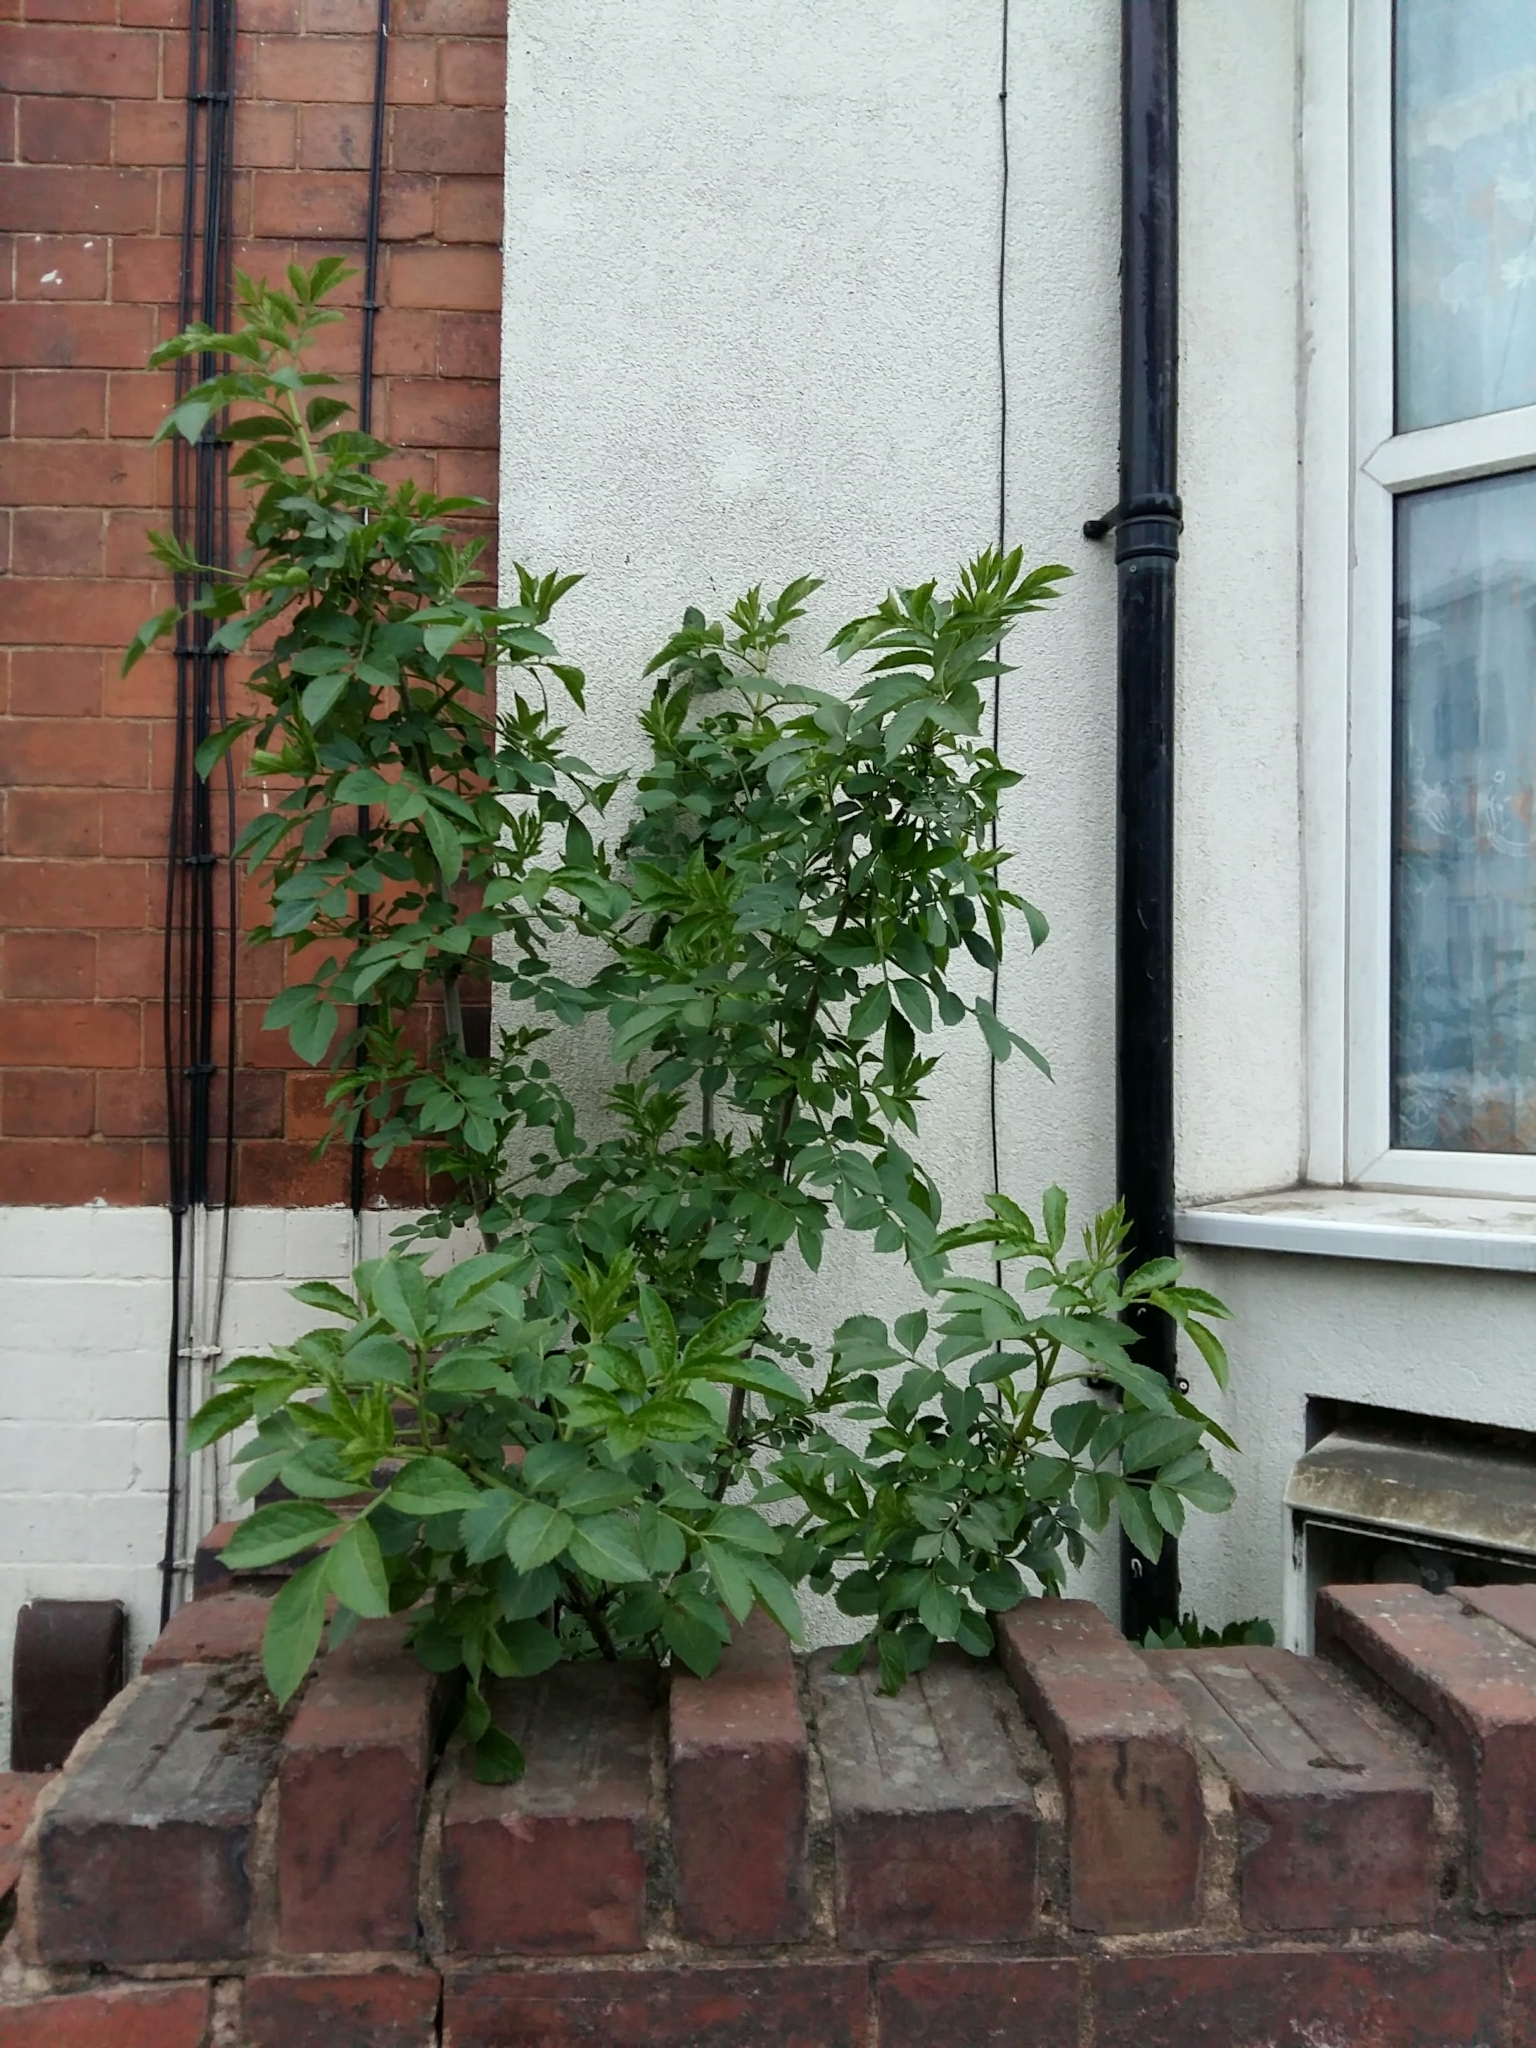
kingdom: Plantae
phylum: Tracheophyta
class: Magnoliopsida
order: Dipsacales
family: Viburnaceae
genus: Sambucus
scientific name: Sambucus nigra
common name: Elder
